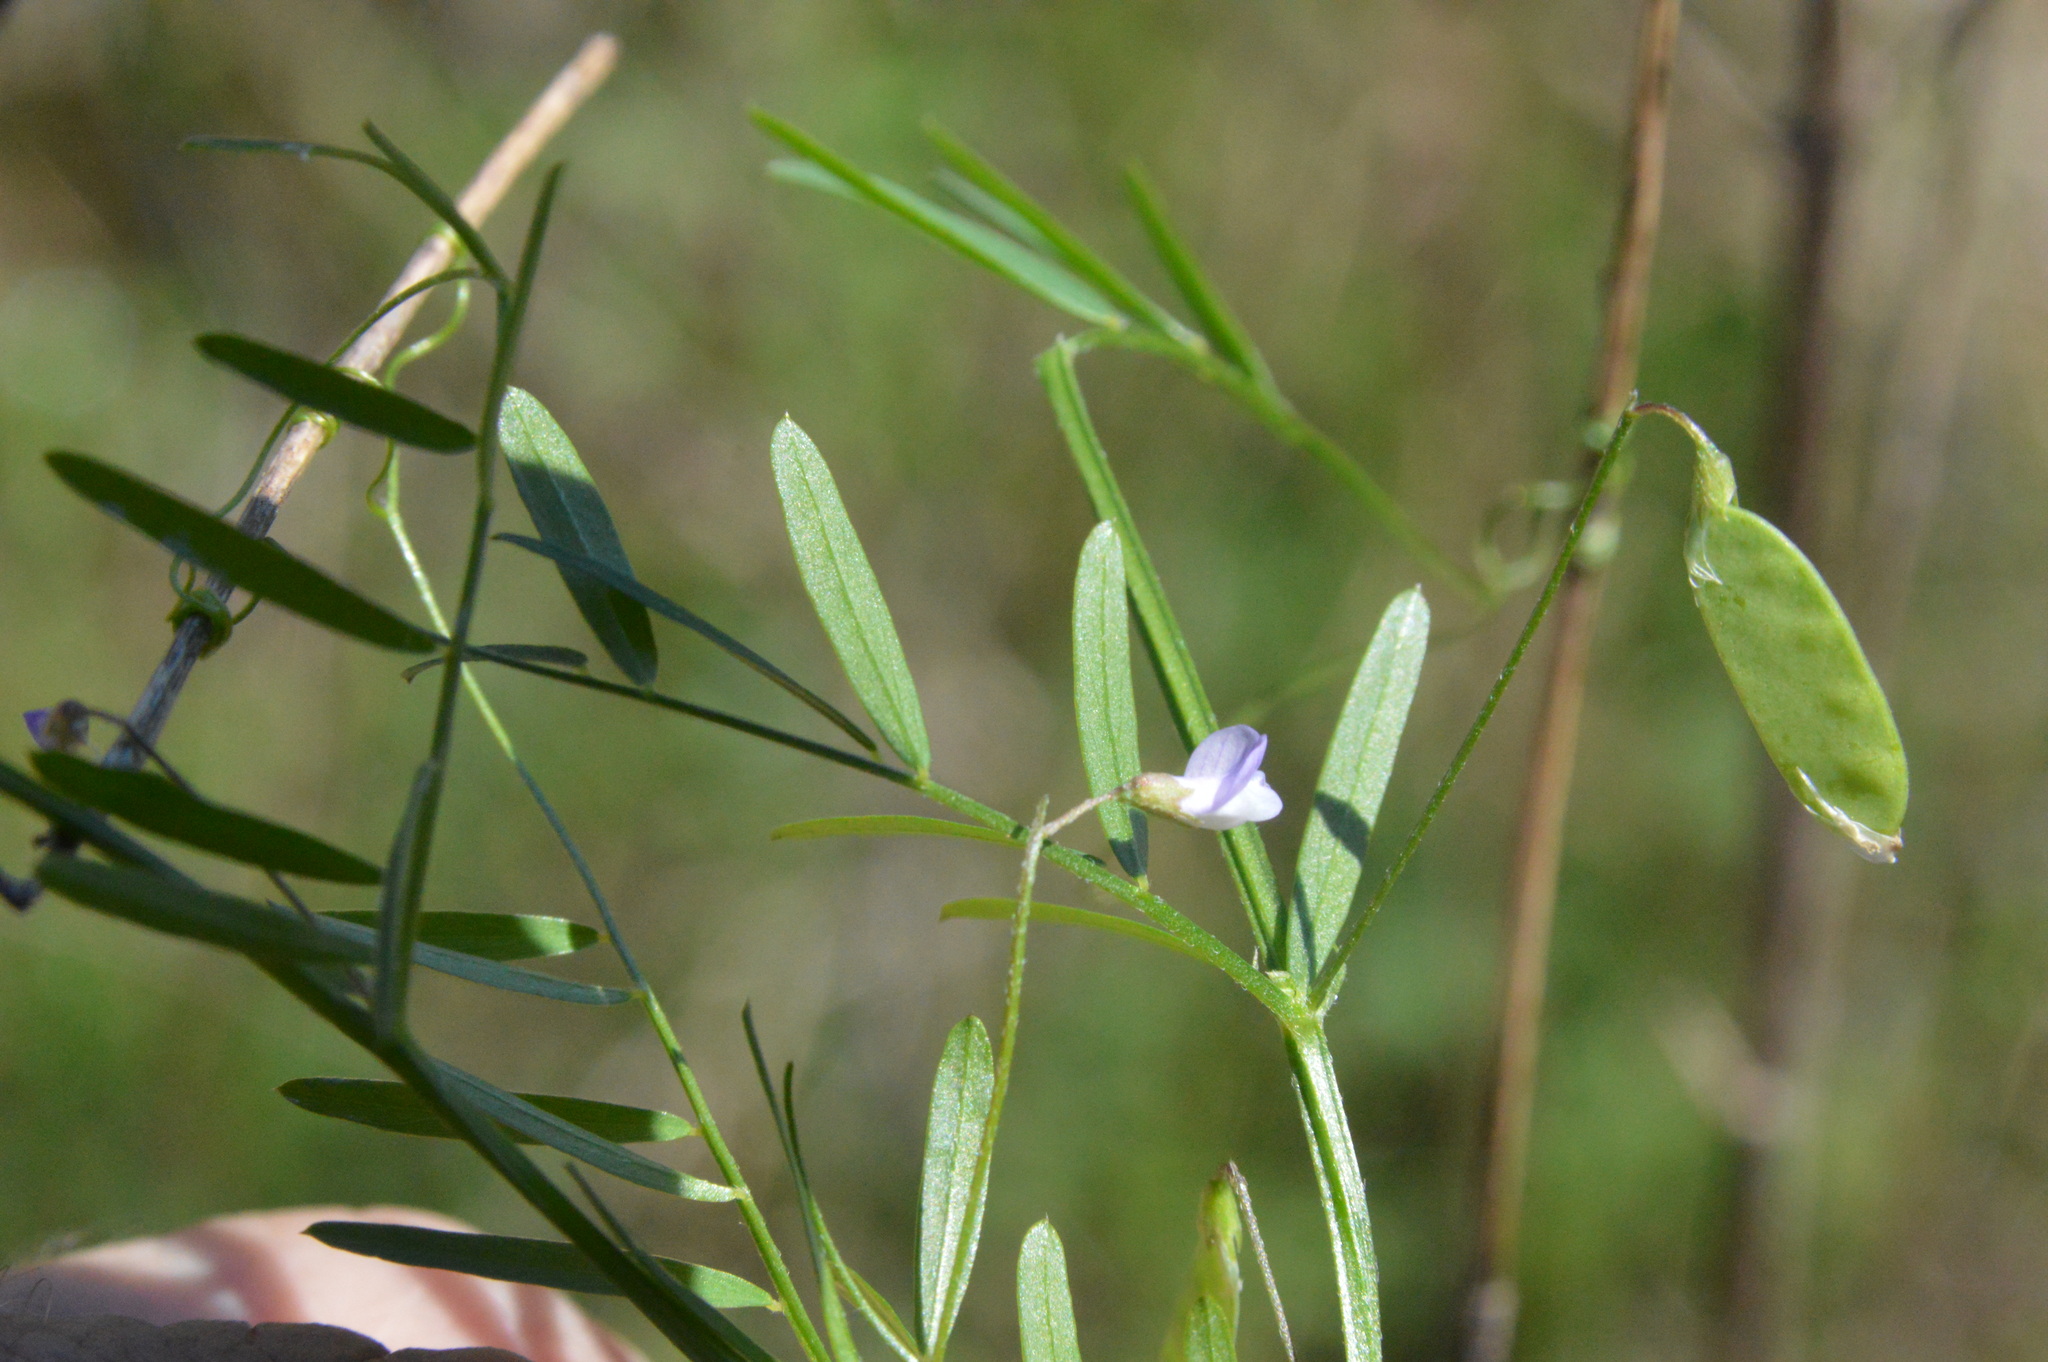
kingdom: Plantae
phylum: Tracheophyta
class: Magnoliopsida
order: Fabales
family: Fabaceae
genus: Vicia
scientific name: Vicia tetrasperma
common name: Smooth tare
